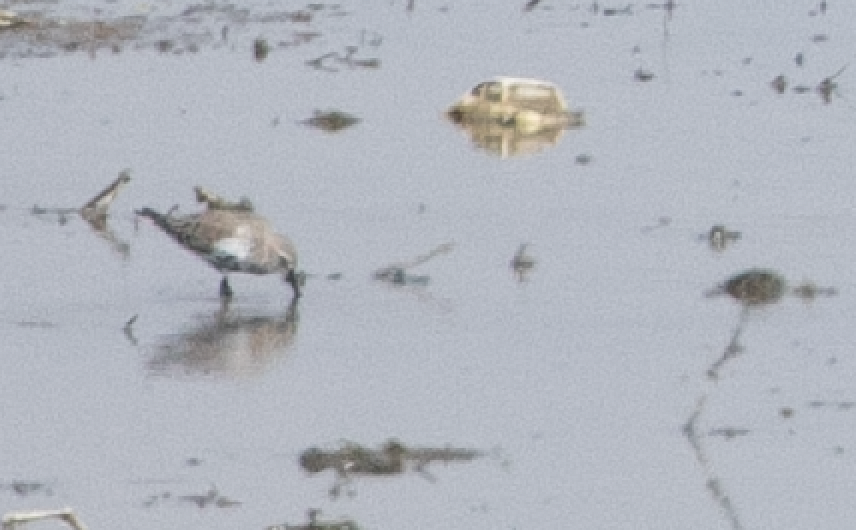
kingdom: Animalia
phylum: Chordata
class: Aves
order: Charadriiformes
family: Scolopacidae
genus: Calidris
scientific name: Calidris alpina
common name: Dunlin
